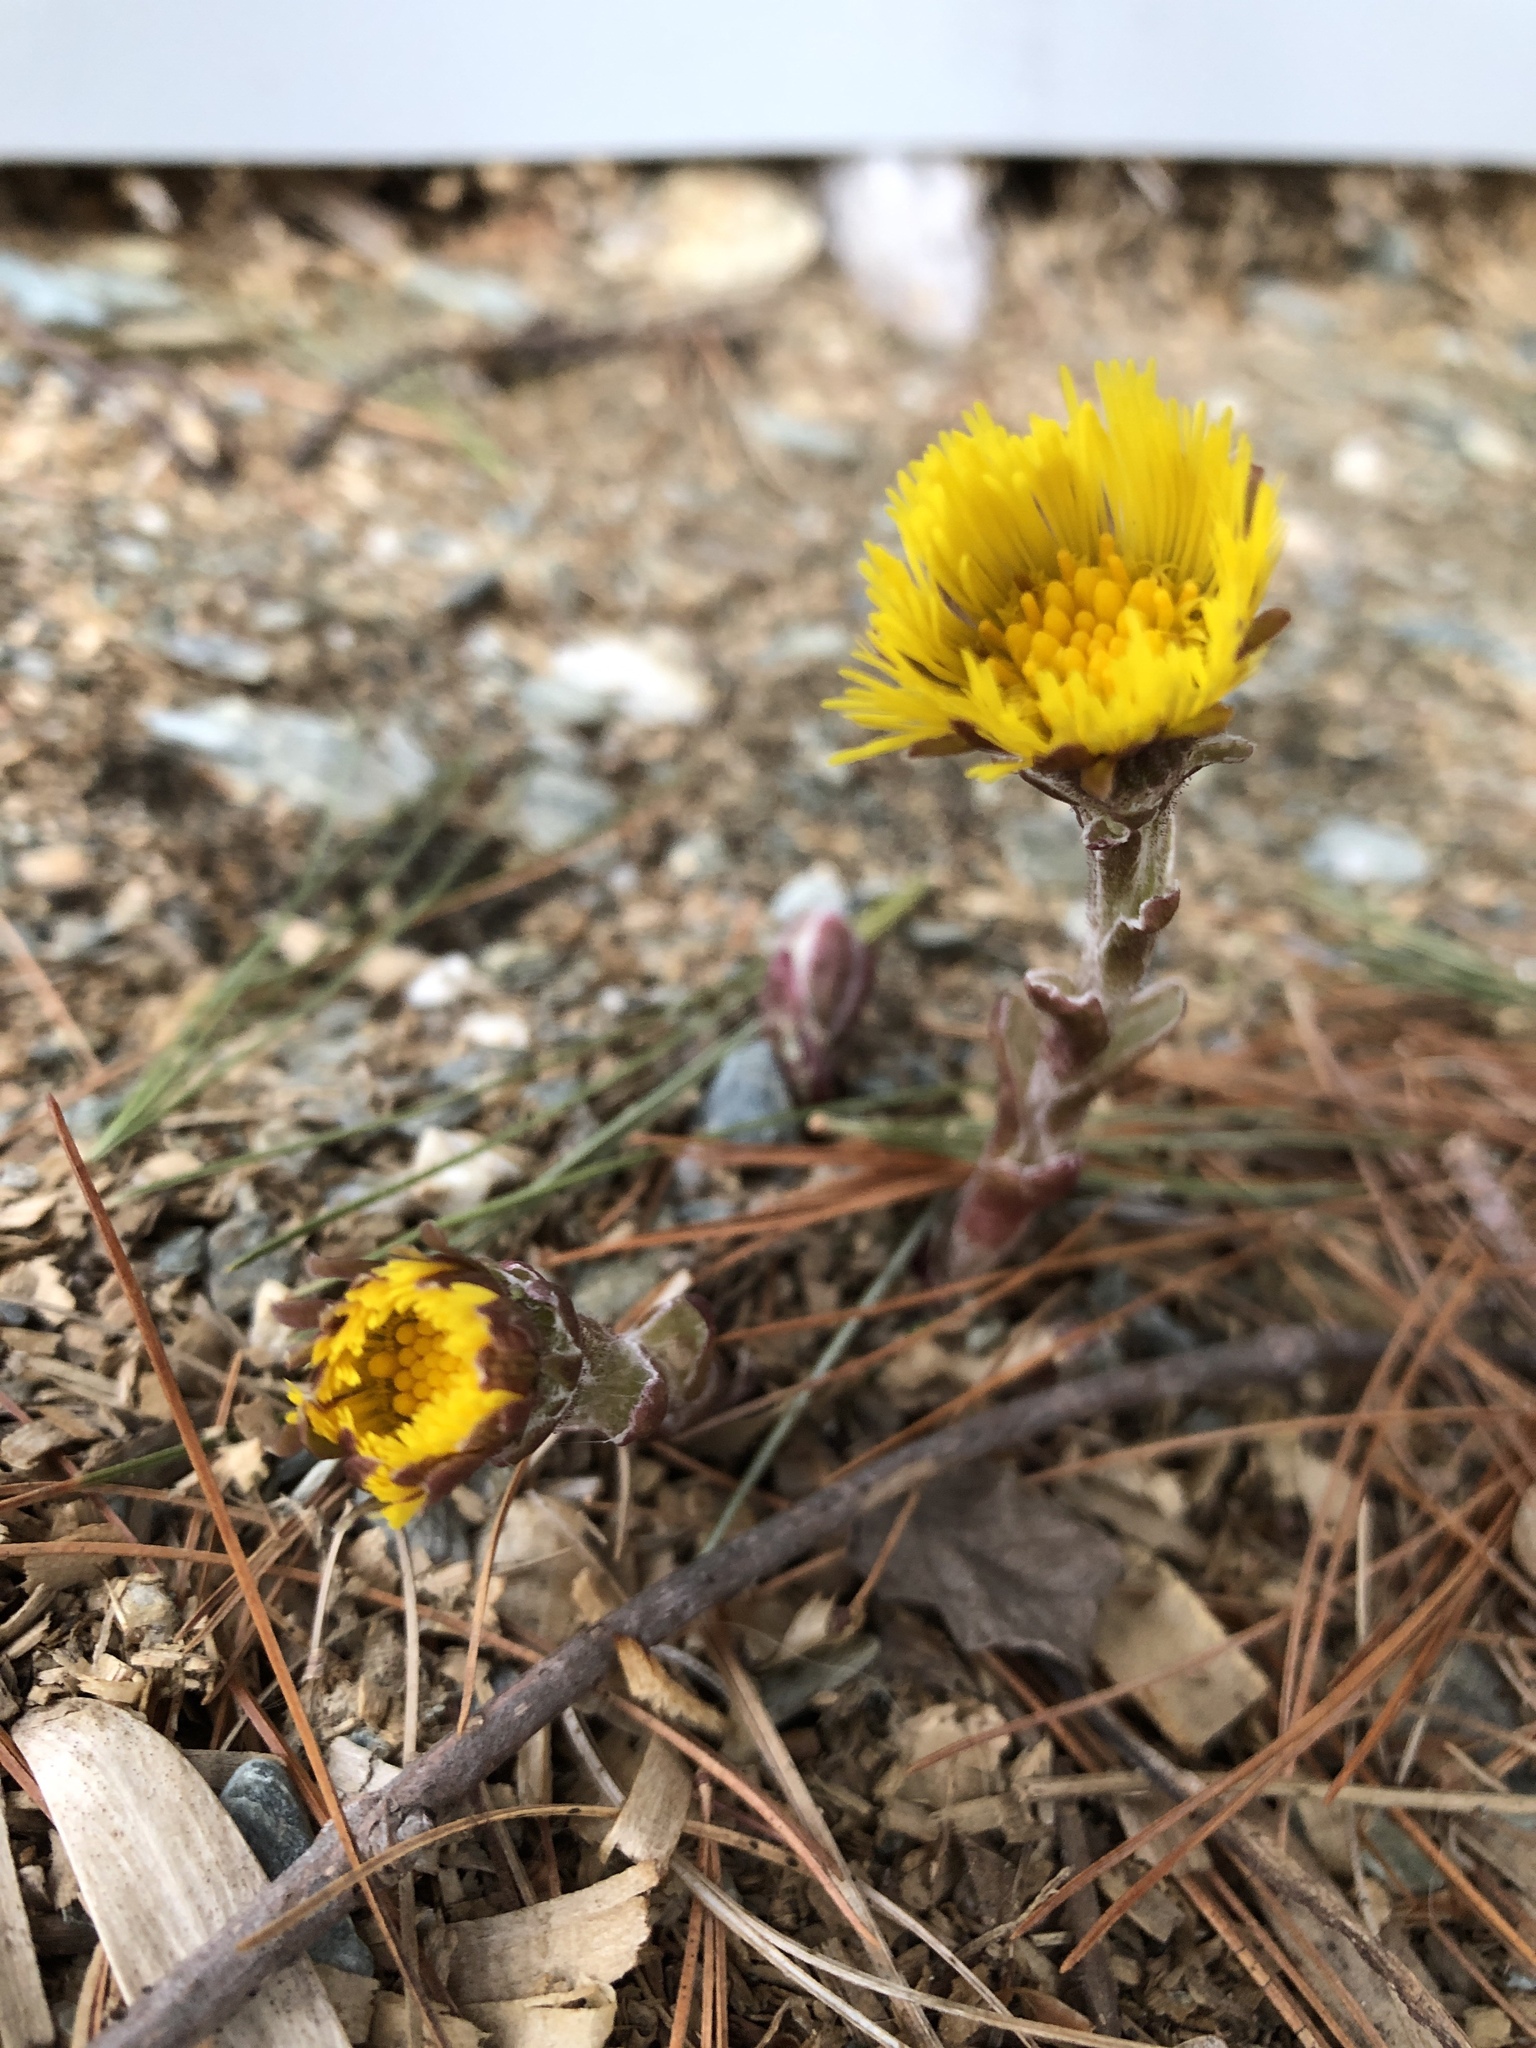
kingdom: Plantae
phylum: Tracheophyta
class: Magnoliopsida
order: Asterales
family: Asteraceae
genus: Tussilago
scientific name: Tussilago farfara
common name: Coltsfoot
